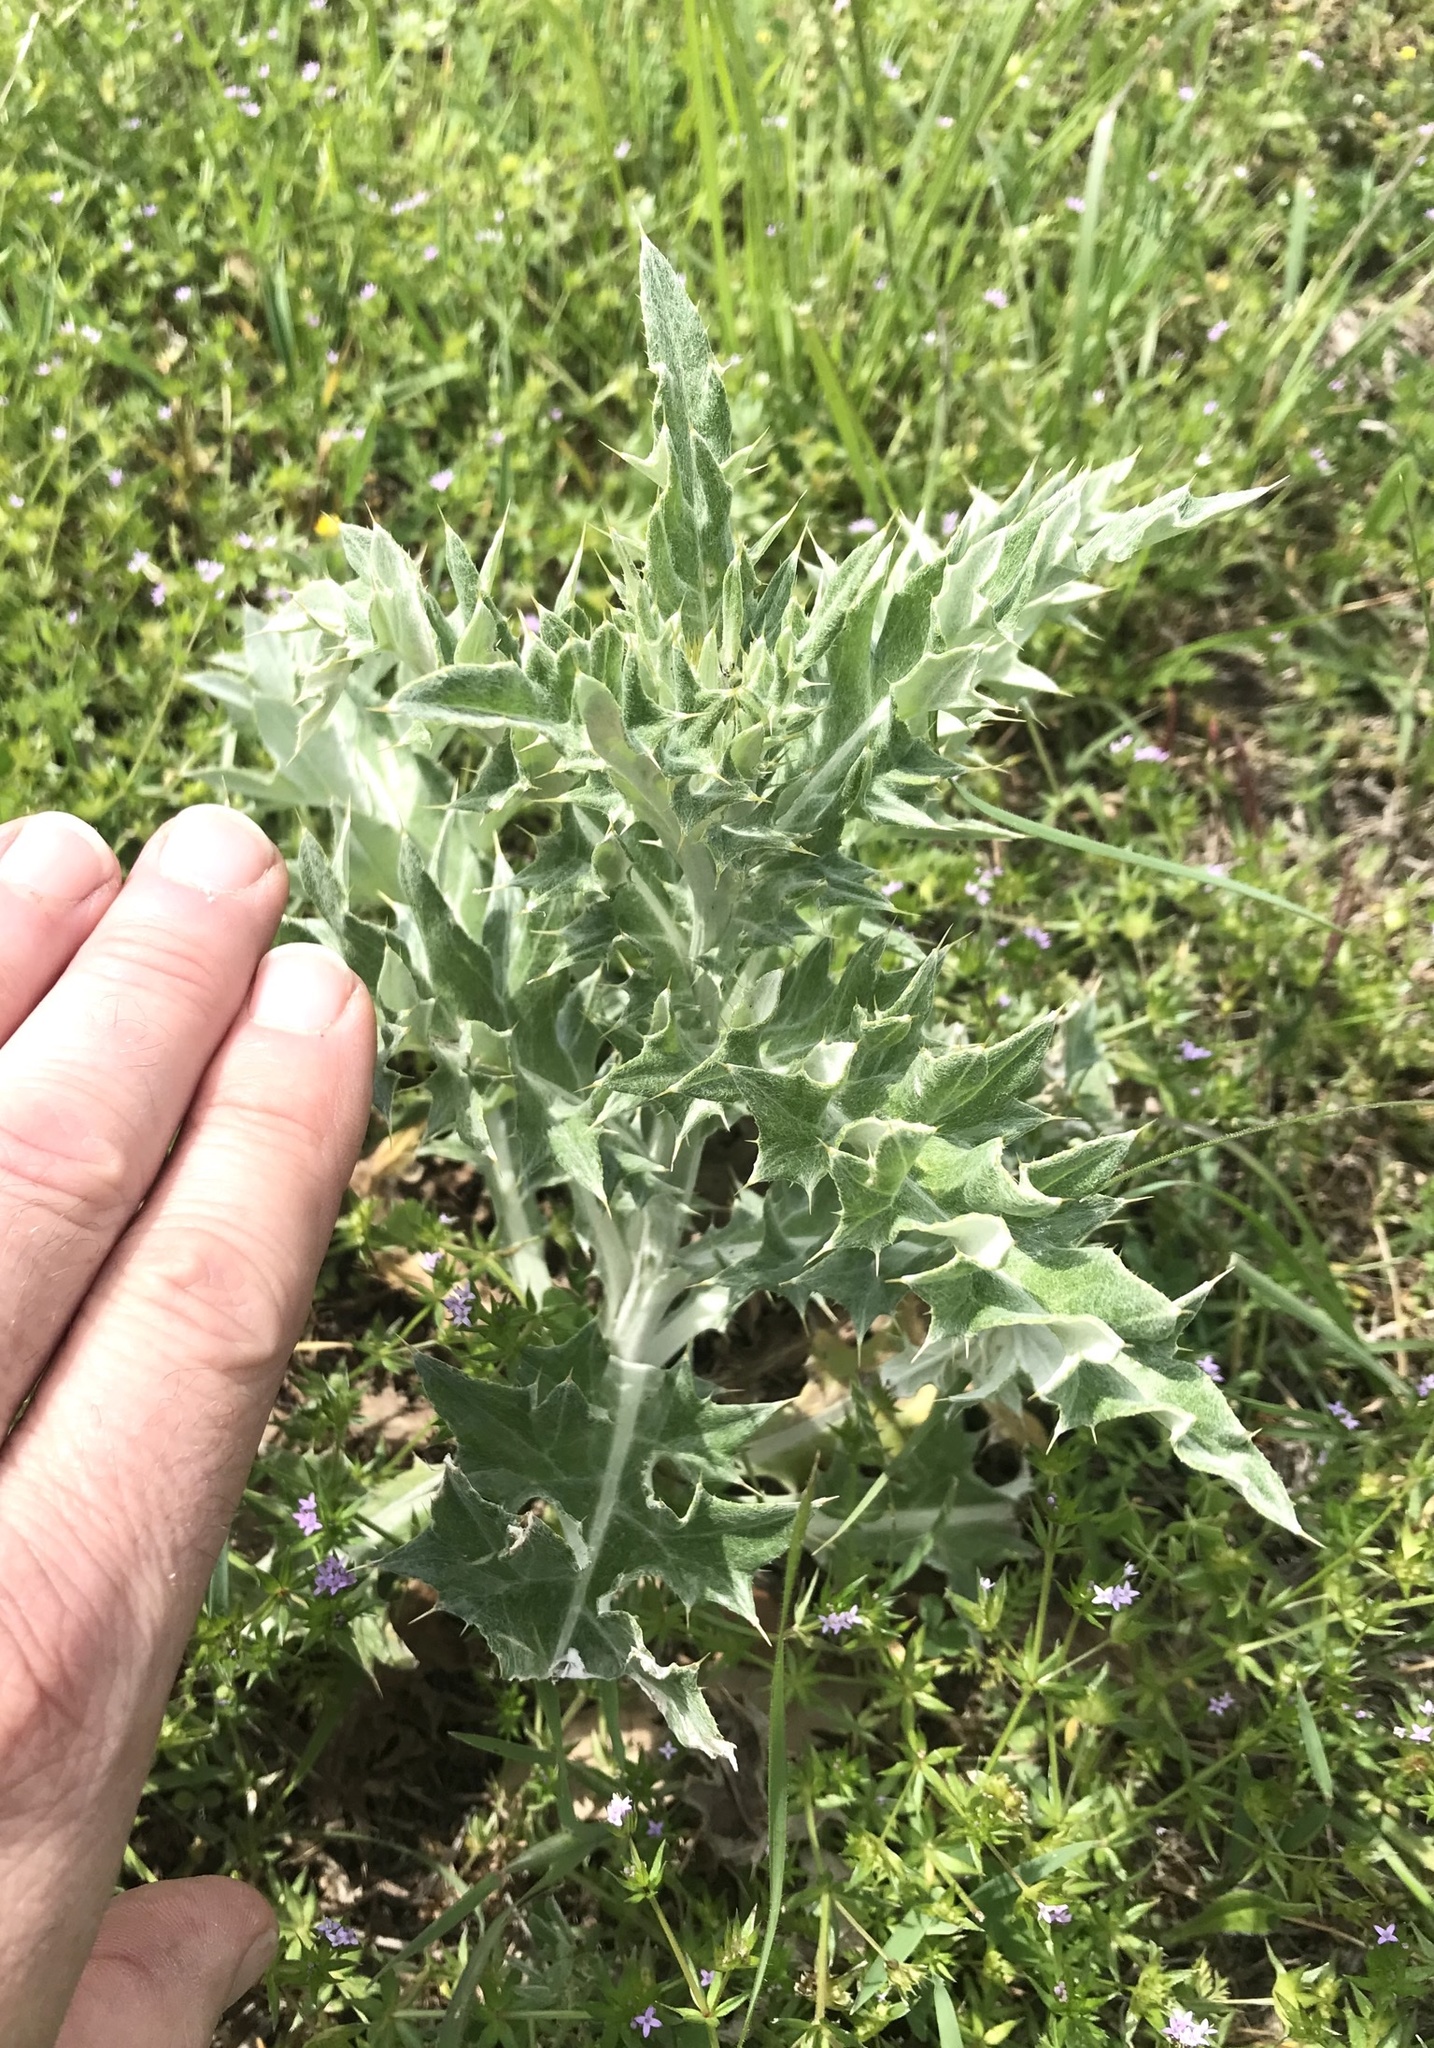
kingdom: Plantae
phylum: Tracheophyta
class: Magnoliopsida
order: Asterales
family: Asteraceae
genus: Cirsium
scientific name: Cirsium undulatum
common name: Pasture thistle
